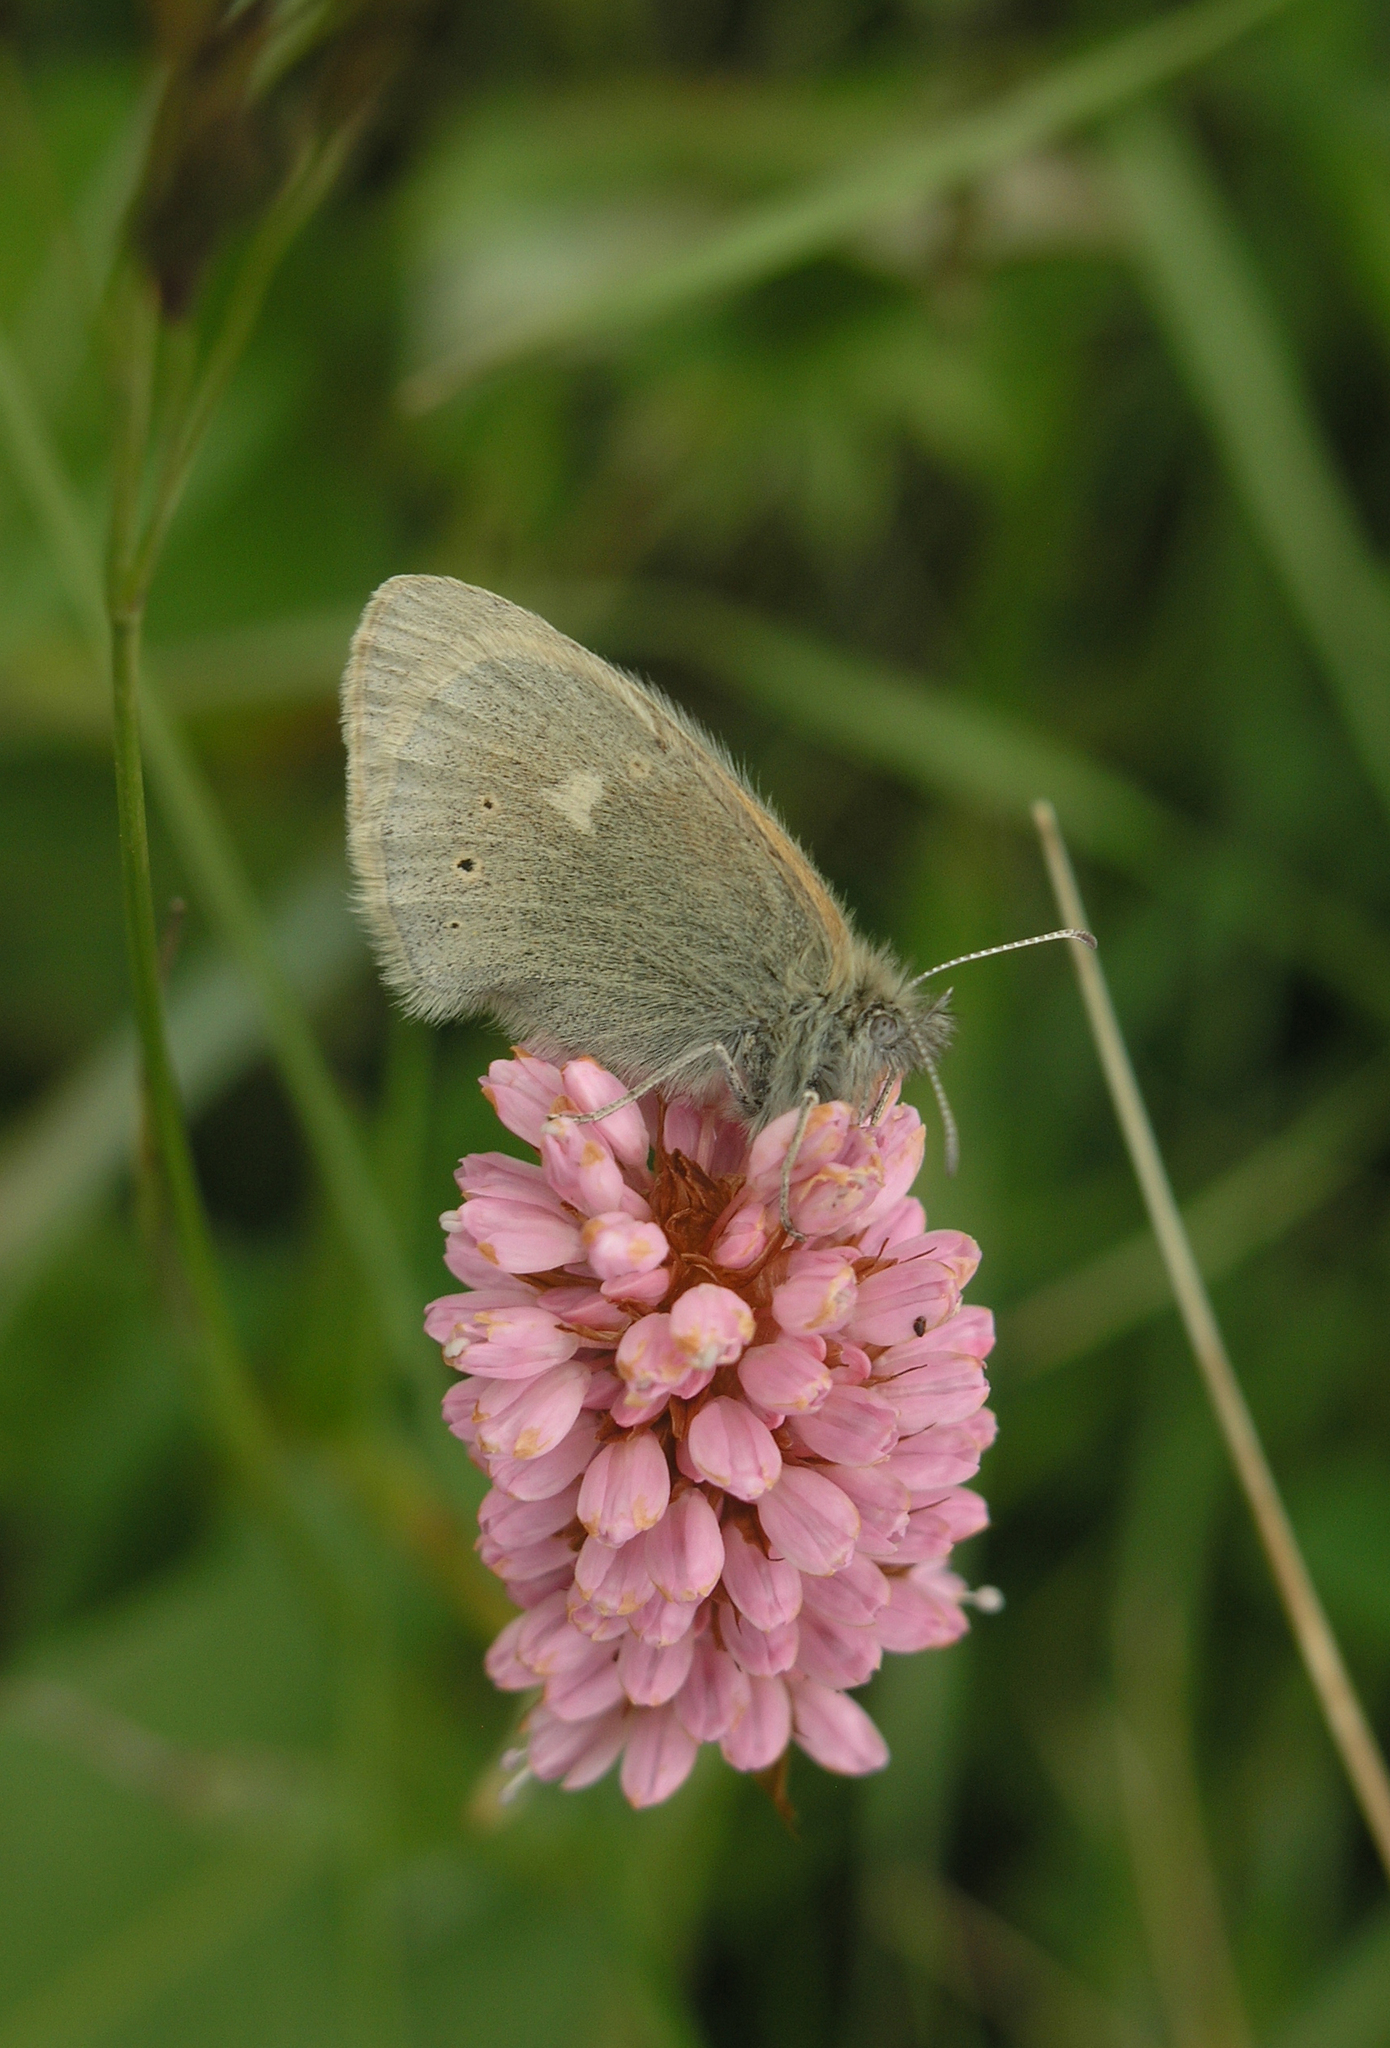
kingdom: Animalia
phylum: Arthropoda
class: Insecta
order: Lepidoptera
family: Nymphalidae
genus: Coenonympha
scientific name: Coenonympha tullia
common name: Large heath
